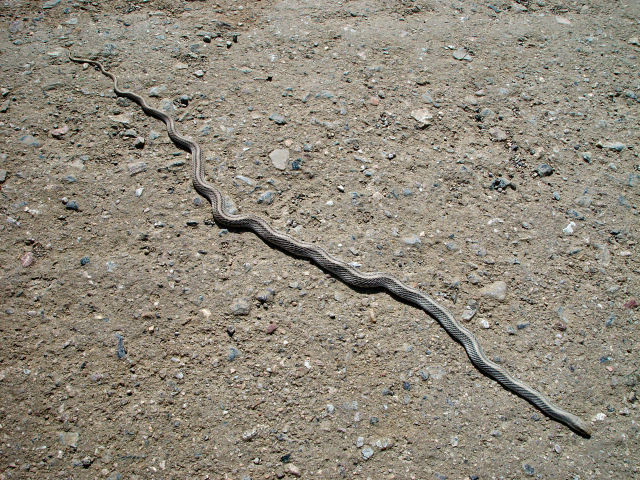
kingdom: Animalia
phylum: Chordata
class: Squamata
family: Colubridae
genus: Salvadora
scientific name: Salvadora hexalepis
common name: Western patchnose snake
